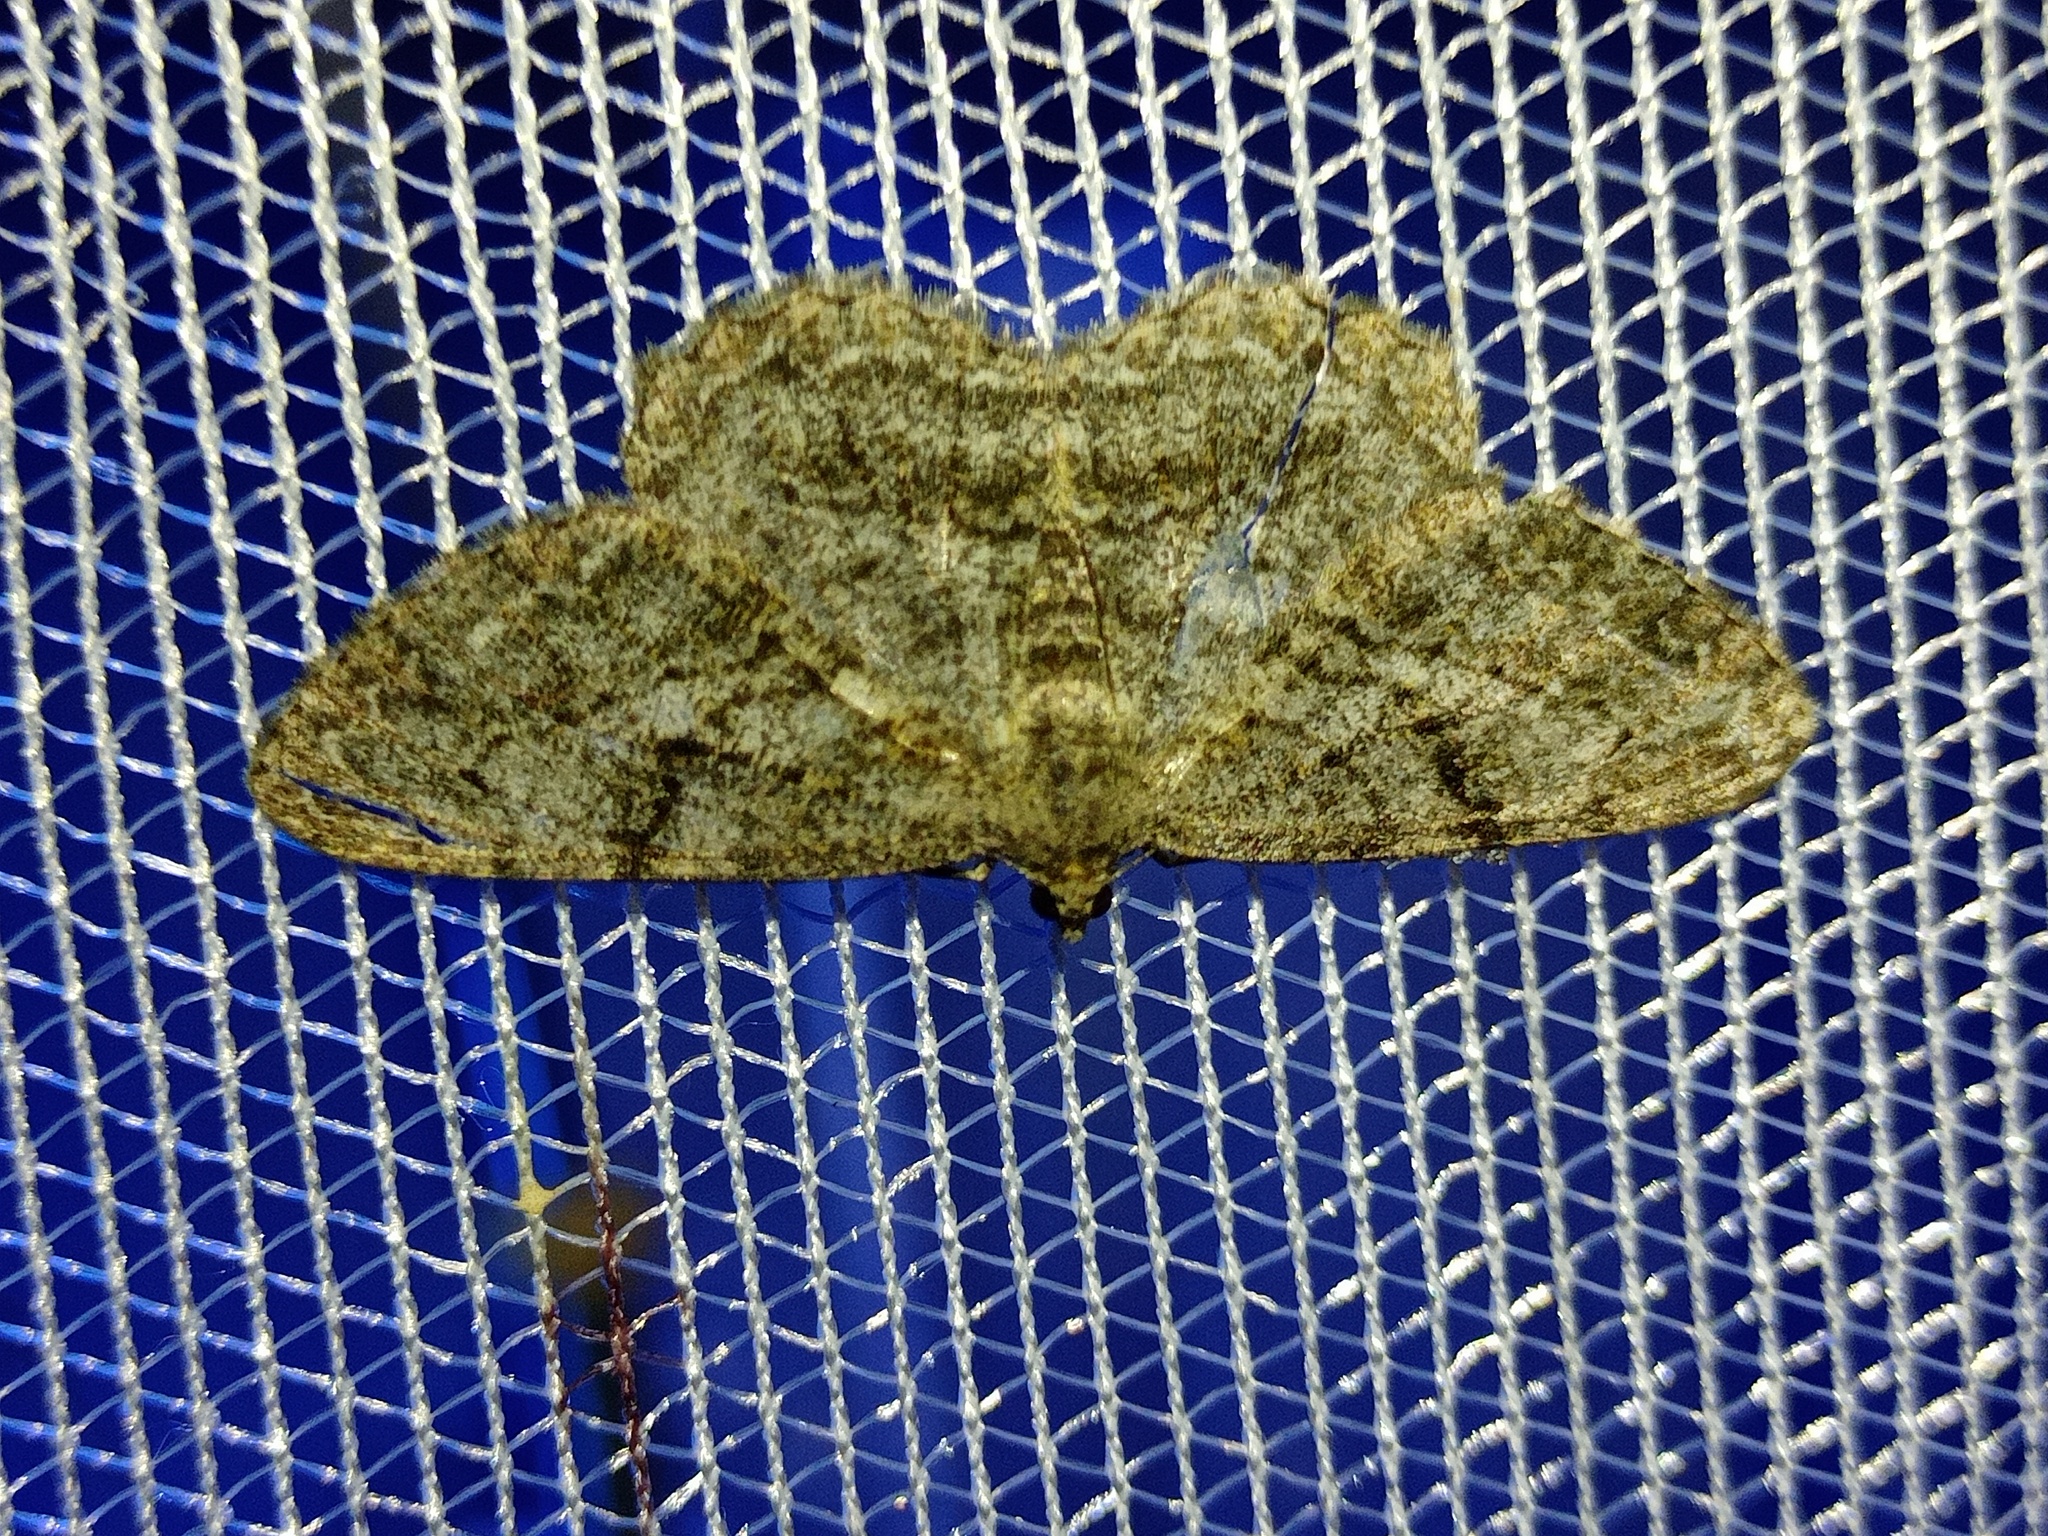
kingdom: Animalia
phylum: Arthropoda
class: Insecta
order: Lepidoptera
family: Geometridae
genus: Peribatodes
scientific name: Peribatodes rhomboidaria
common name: Willow beauty
